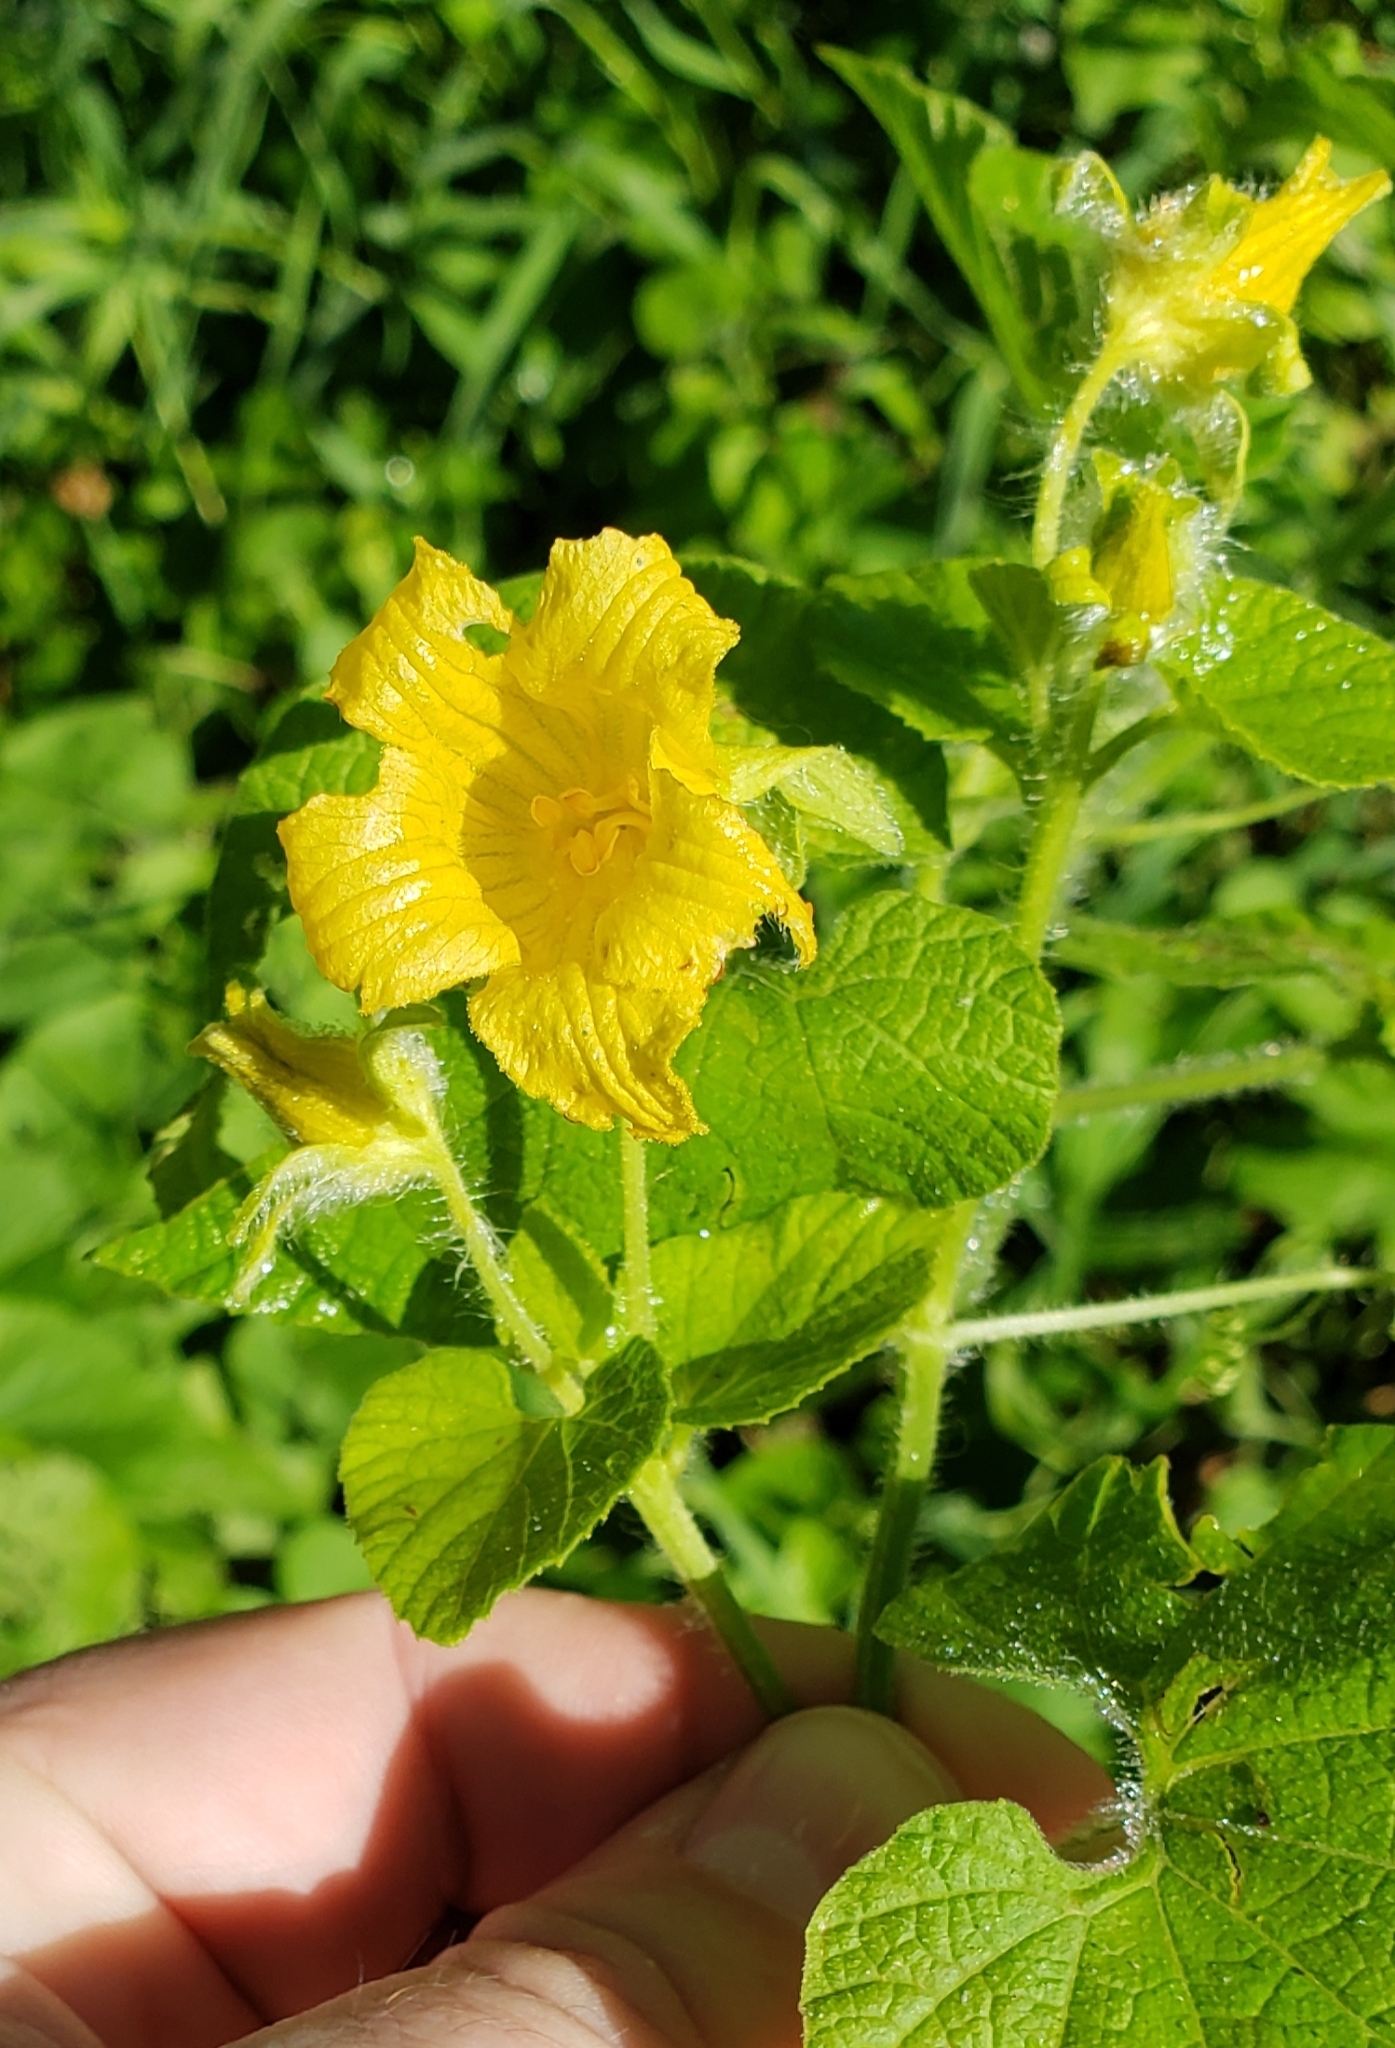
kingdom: Plantae
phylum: Tracheophyta
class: Magnoliopsida
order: Cucurbitales
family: Cucurbitaceae
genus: Thladiantha
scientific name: Thladiantha dubia
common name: Manchu tubergourd
